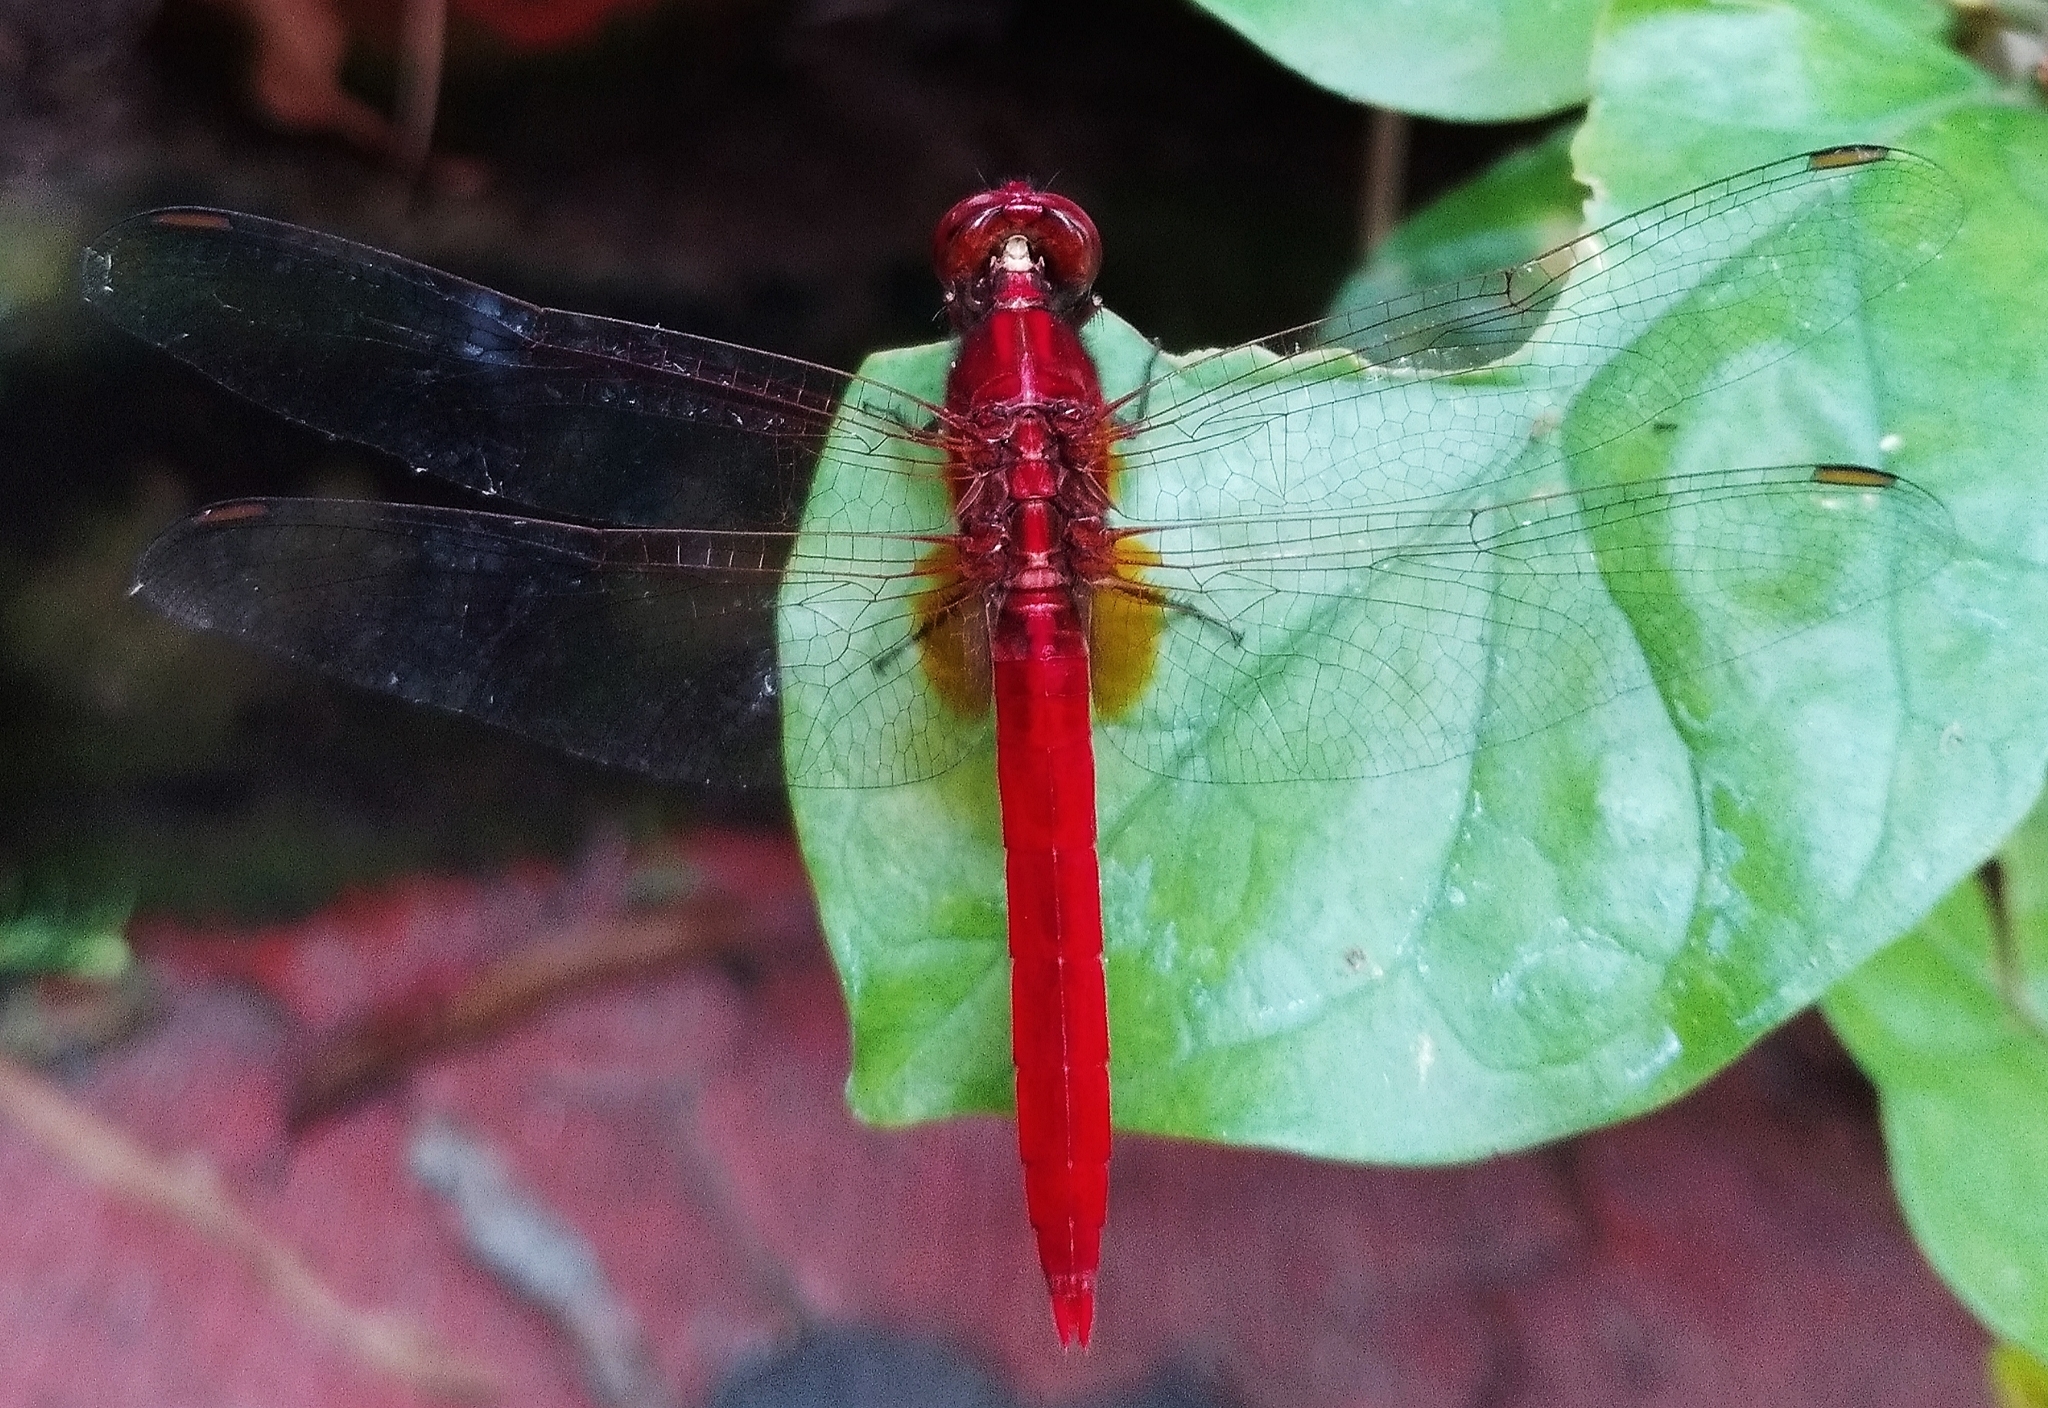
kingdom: Animalia
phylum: Arthropoda
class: Insecta
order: Odonata
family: Libellulidae
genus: Rhodothemis
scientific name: Rhodothemis rufa
